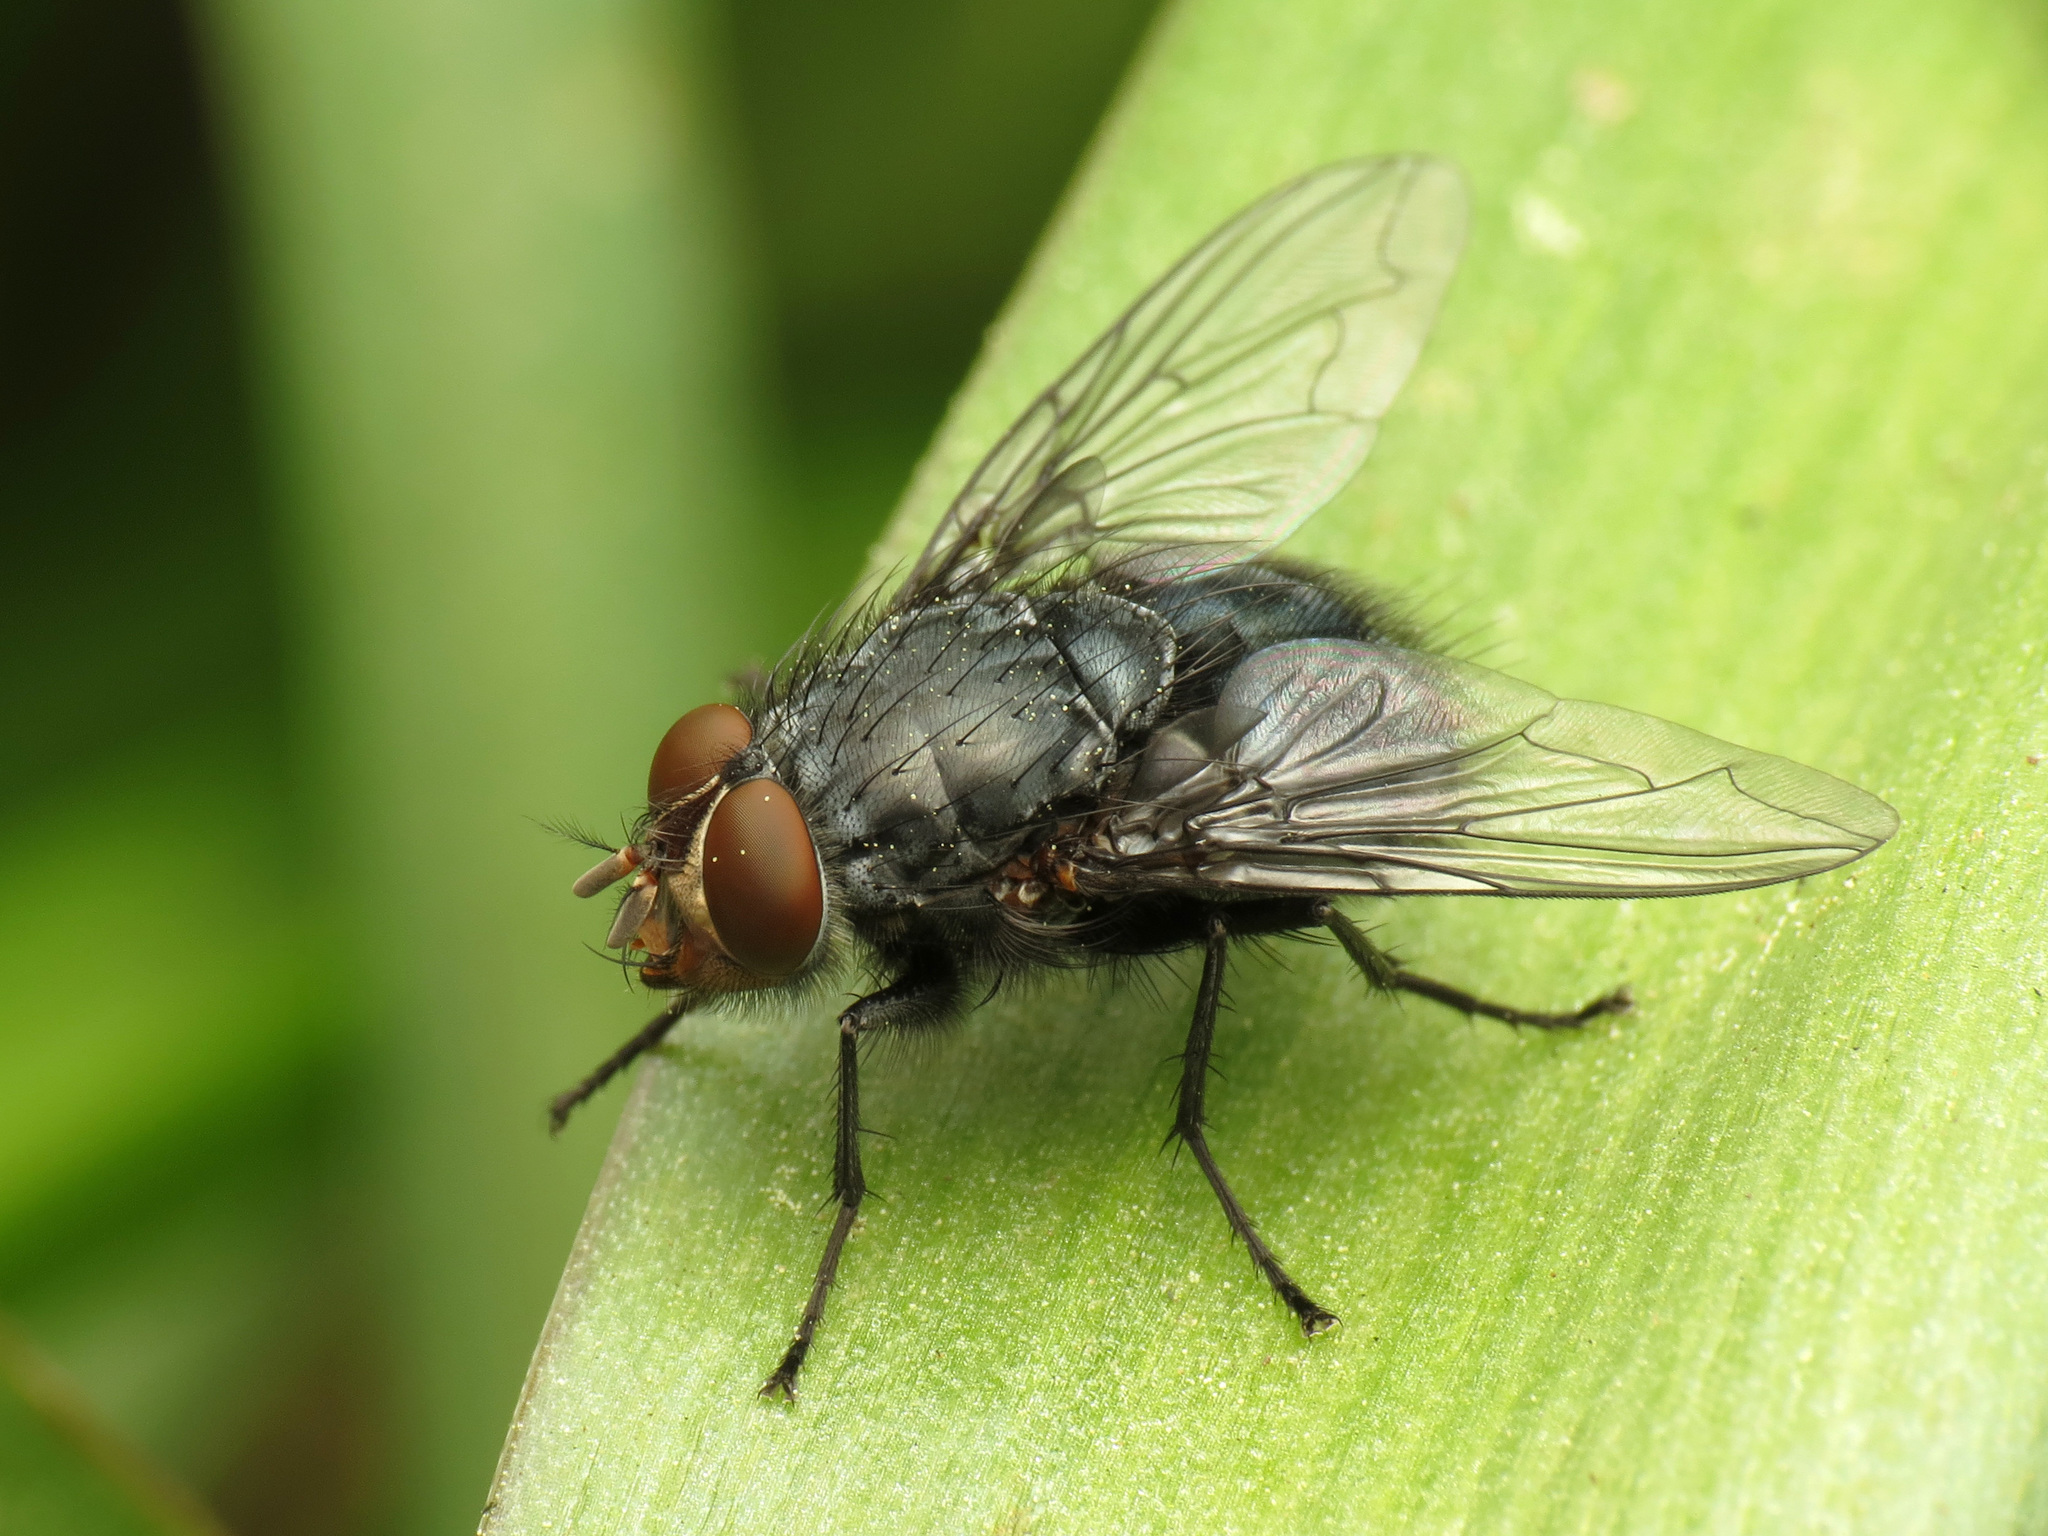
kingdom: Animalia
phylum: Arthropoda
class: Insecta
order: Diptera
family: Calliphoridae
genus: Calliphora
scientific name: Calliphora vicina
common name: Common blow flie
